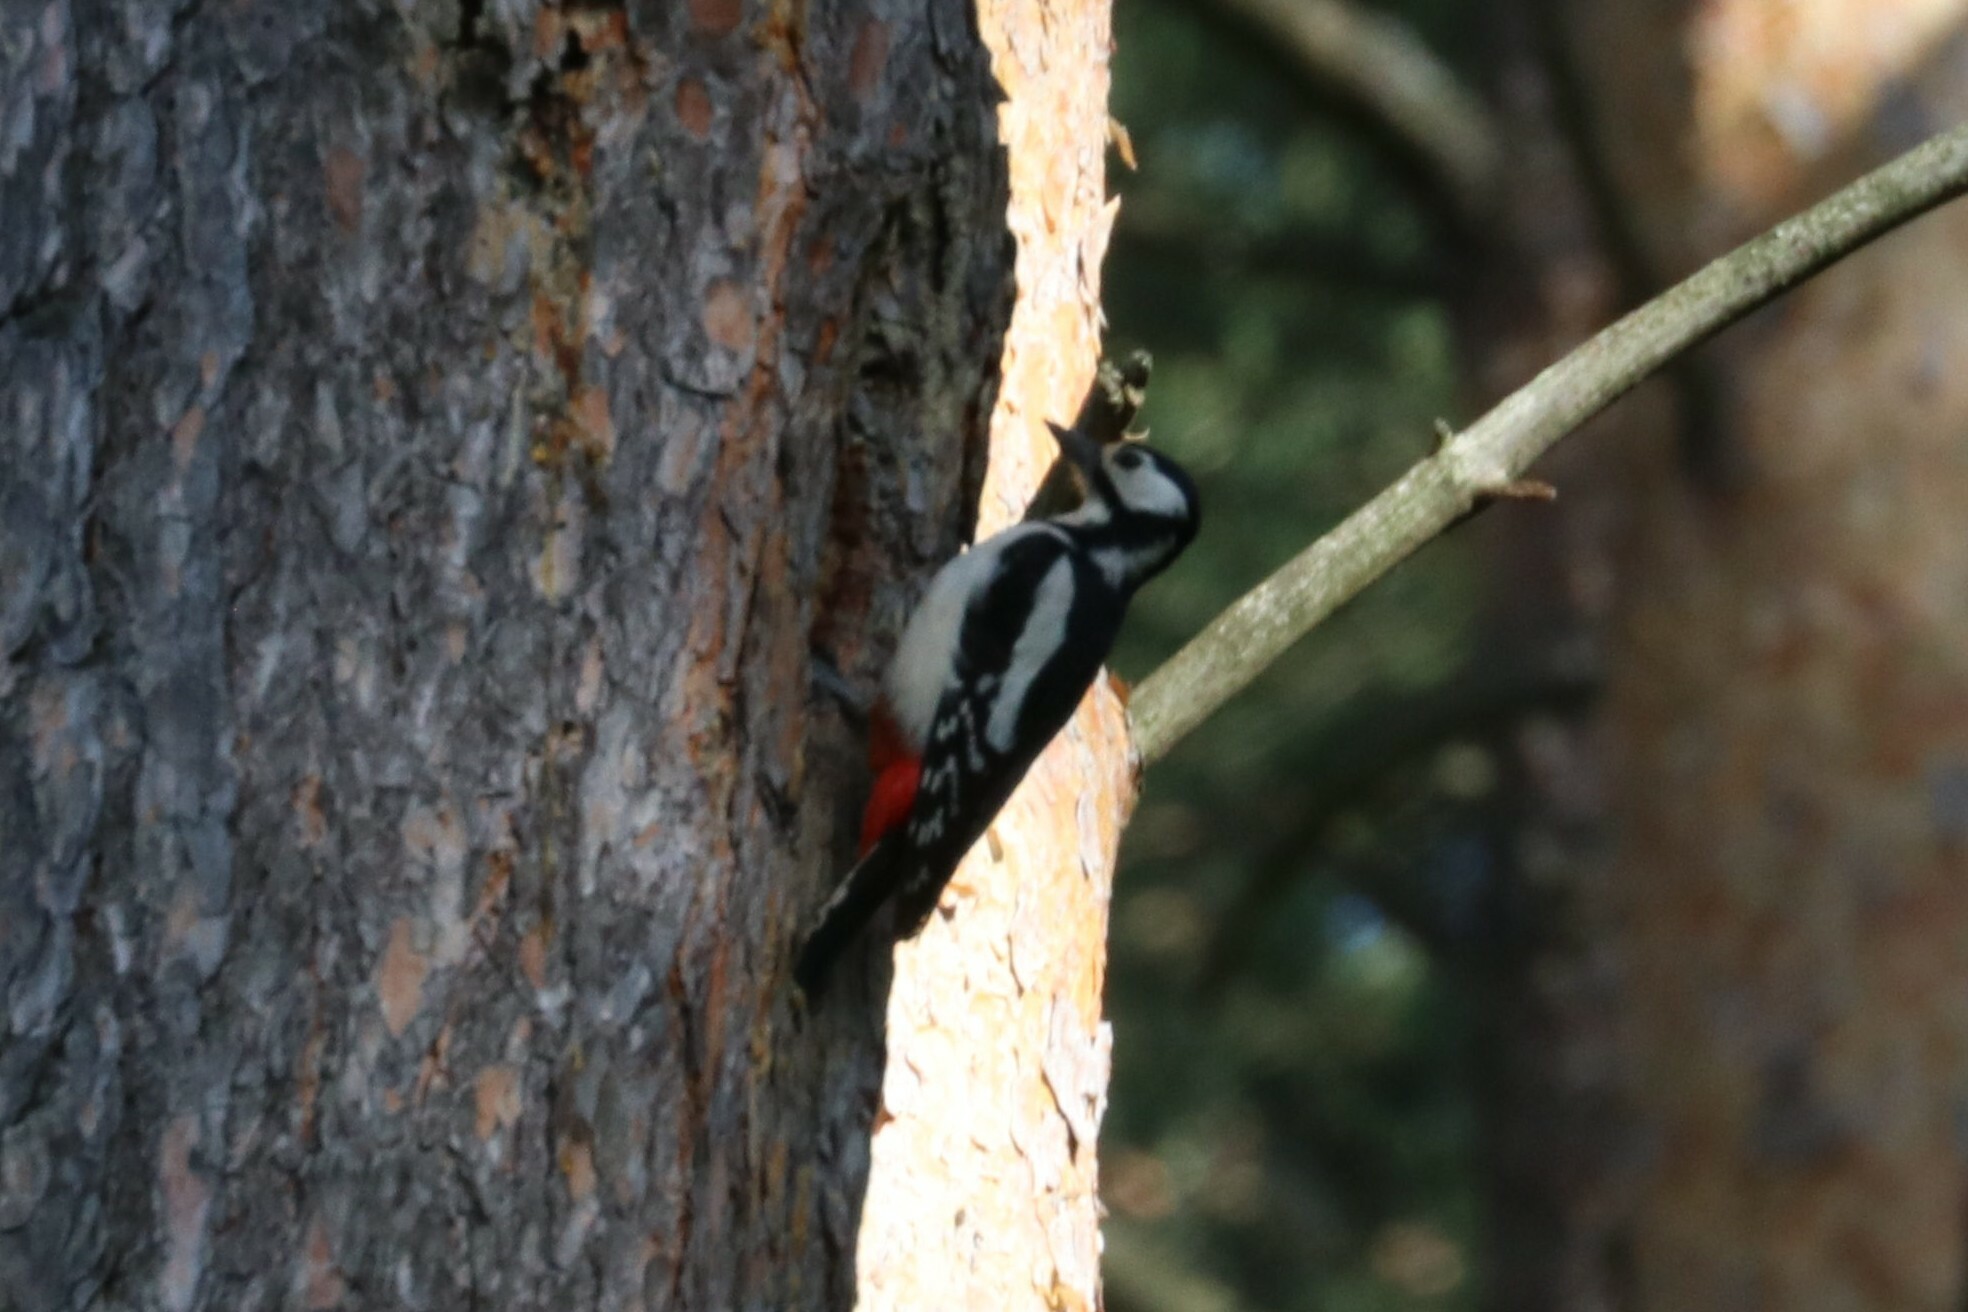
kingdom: Animalia
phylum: Chordata
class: Aves
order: Piciformes
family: Picidae
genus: Dendrocopos
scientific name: Dendrocopos major
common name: Great spotted woodpecker
